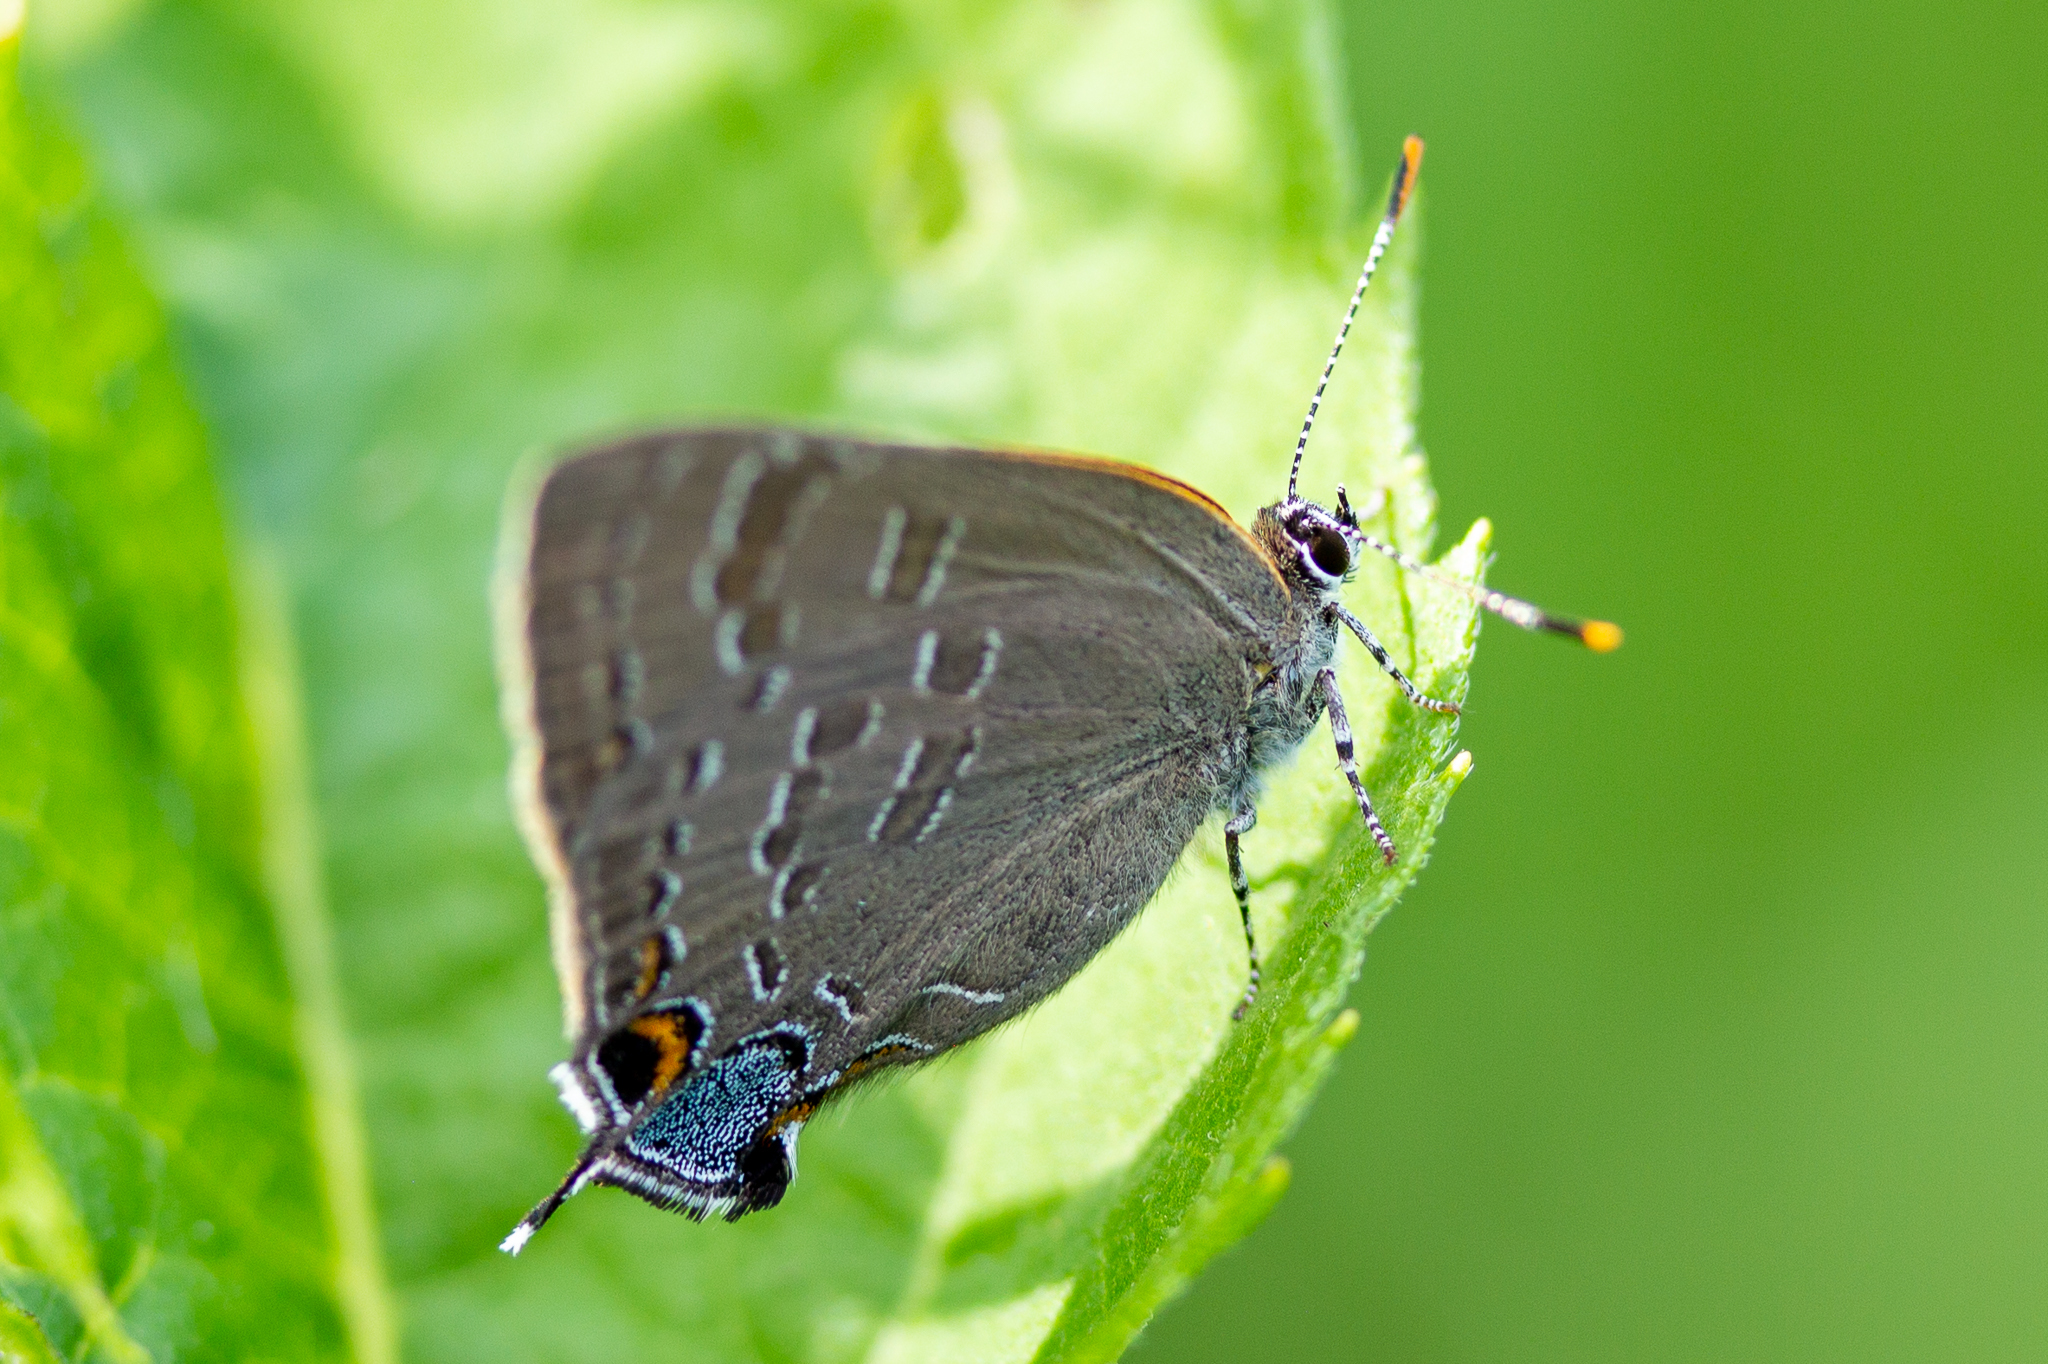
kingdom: Animalia
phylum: Arthropoda
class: Insecta
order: Lepidoptera
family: Lycaenidae
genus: Strymon
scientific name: Strymon caryaevorus
